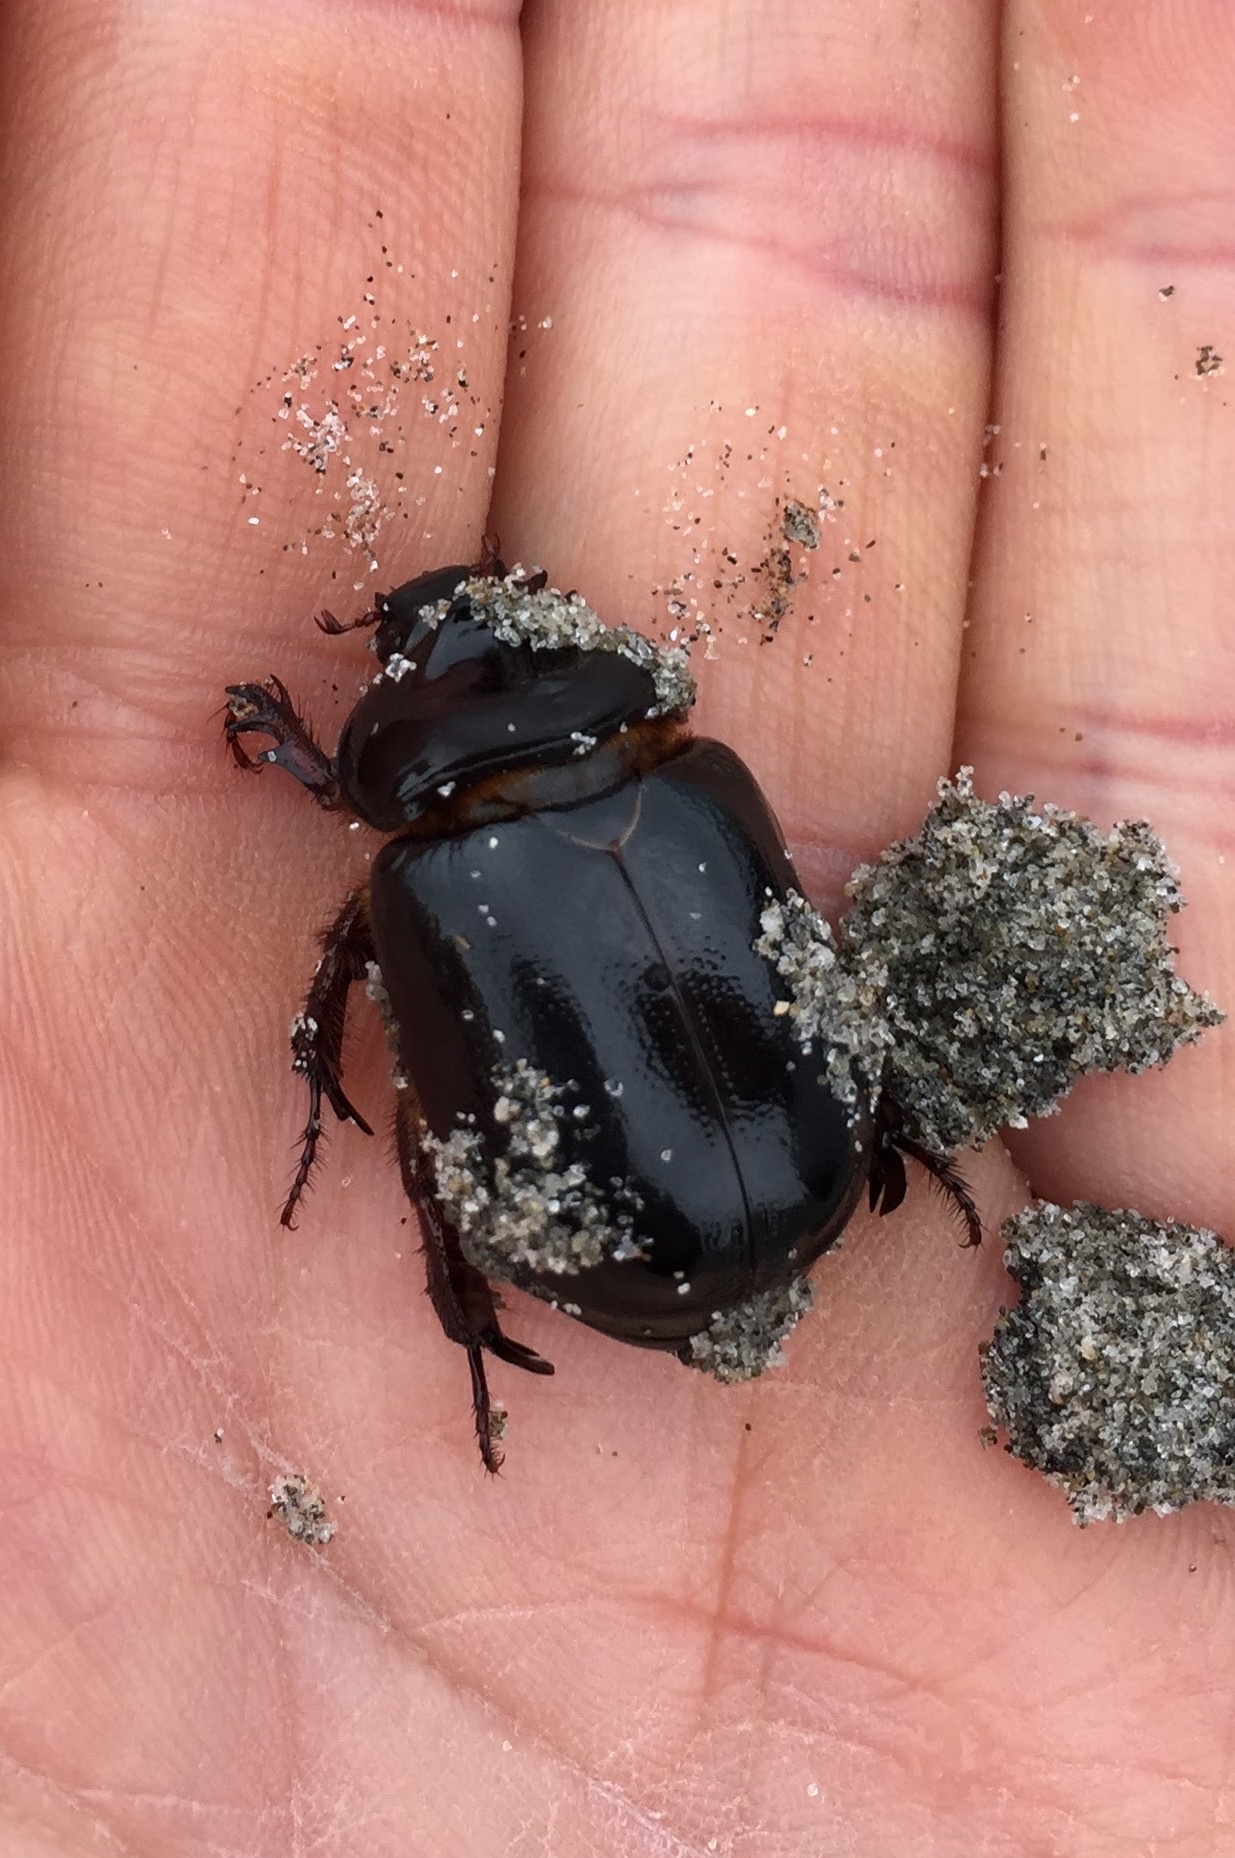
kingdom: Animalia
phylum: Arthropoda
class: Insecta
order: Coleoptera
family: Scarabaeidae
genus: Pericoptus
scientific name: Pericoptus truncatus
